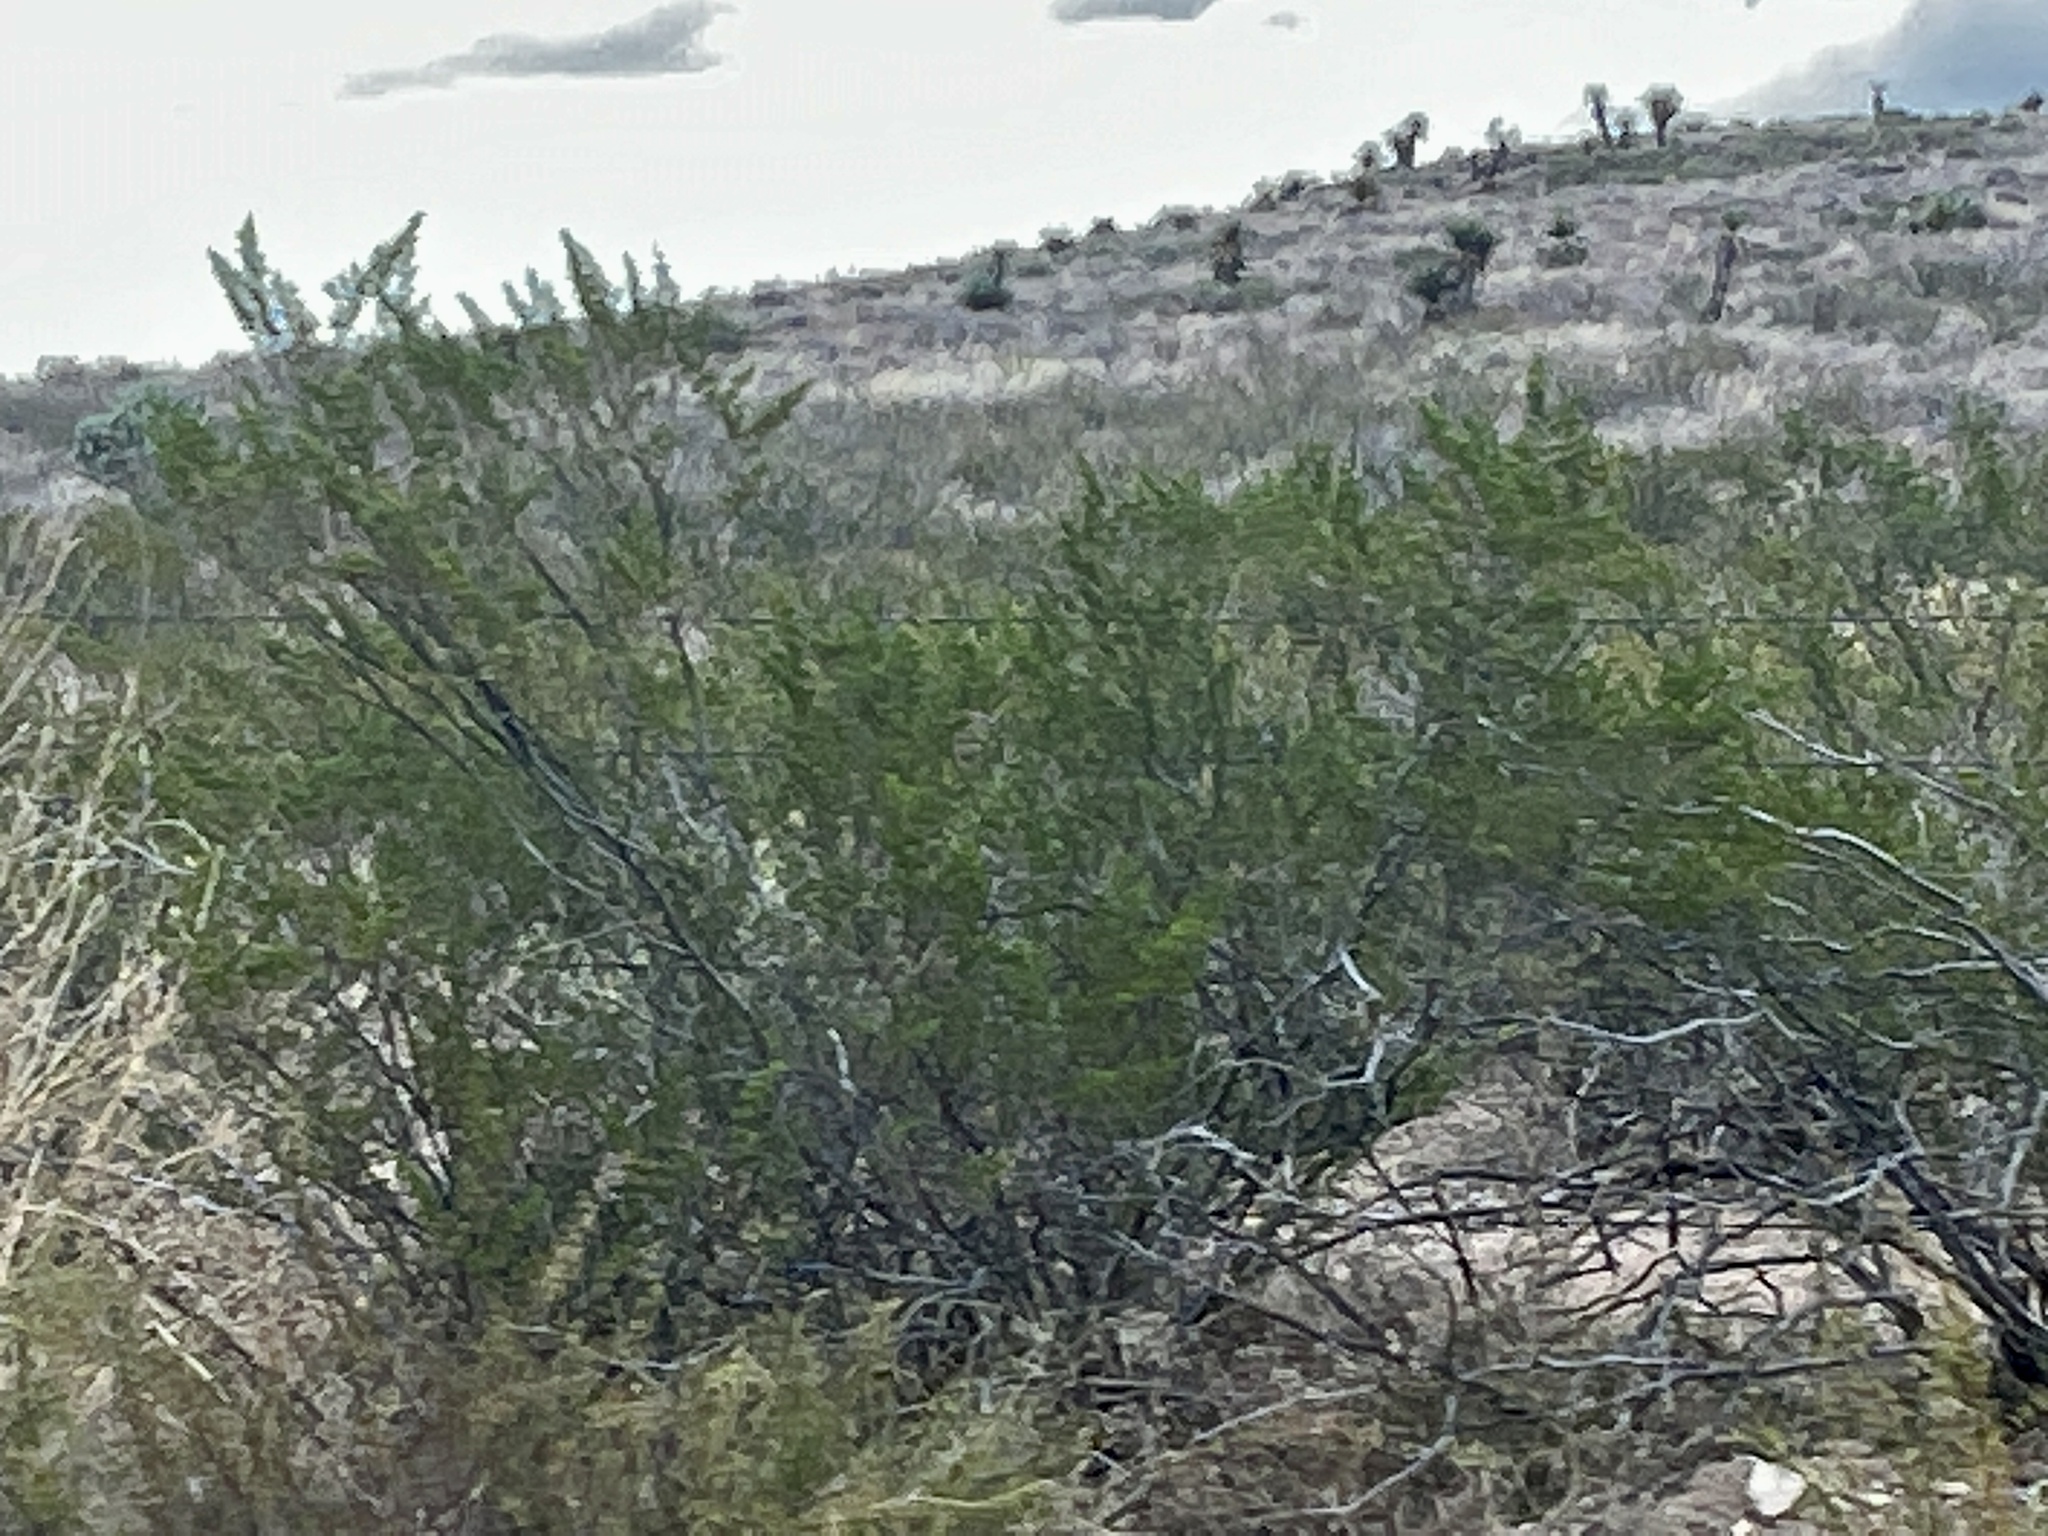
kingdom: Plantae
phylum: Tracheophyta
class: Magnoliopsida
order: Zygophyllales
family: Zygophyllaceae
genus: Larrea
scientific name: Larrea tridentata
